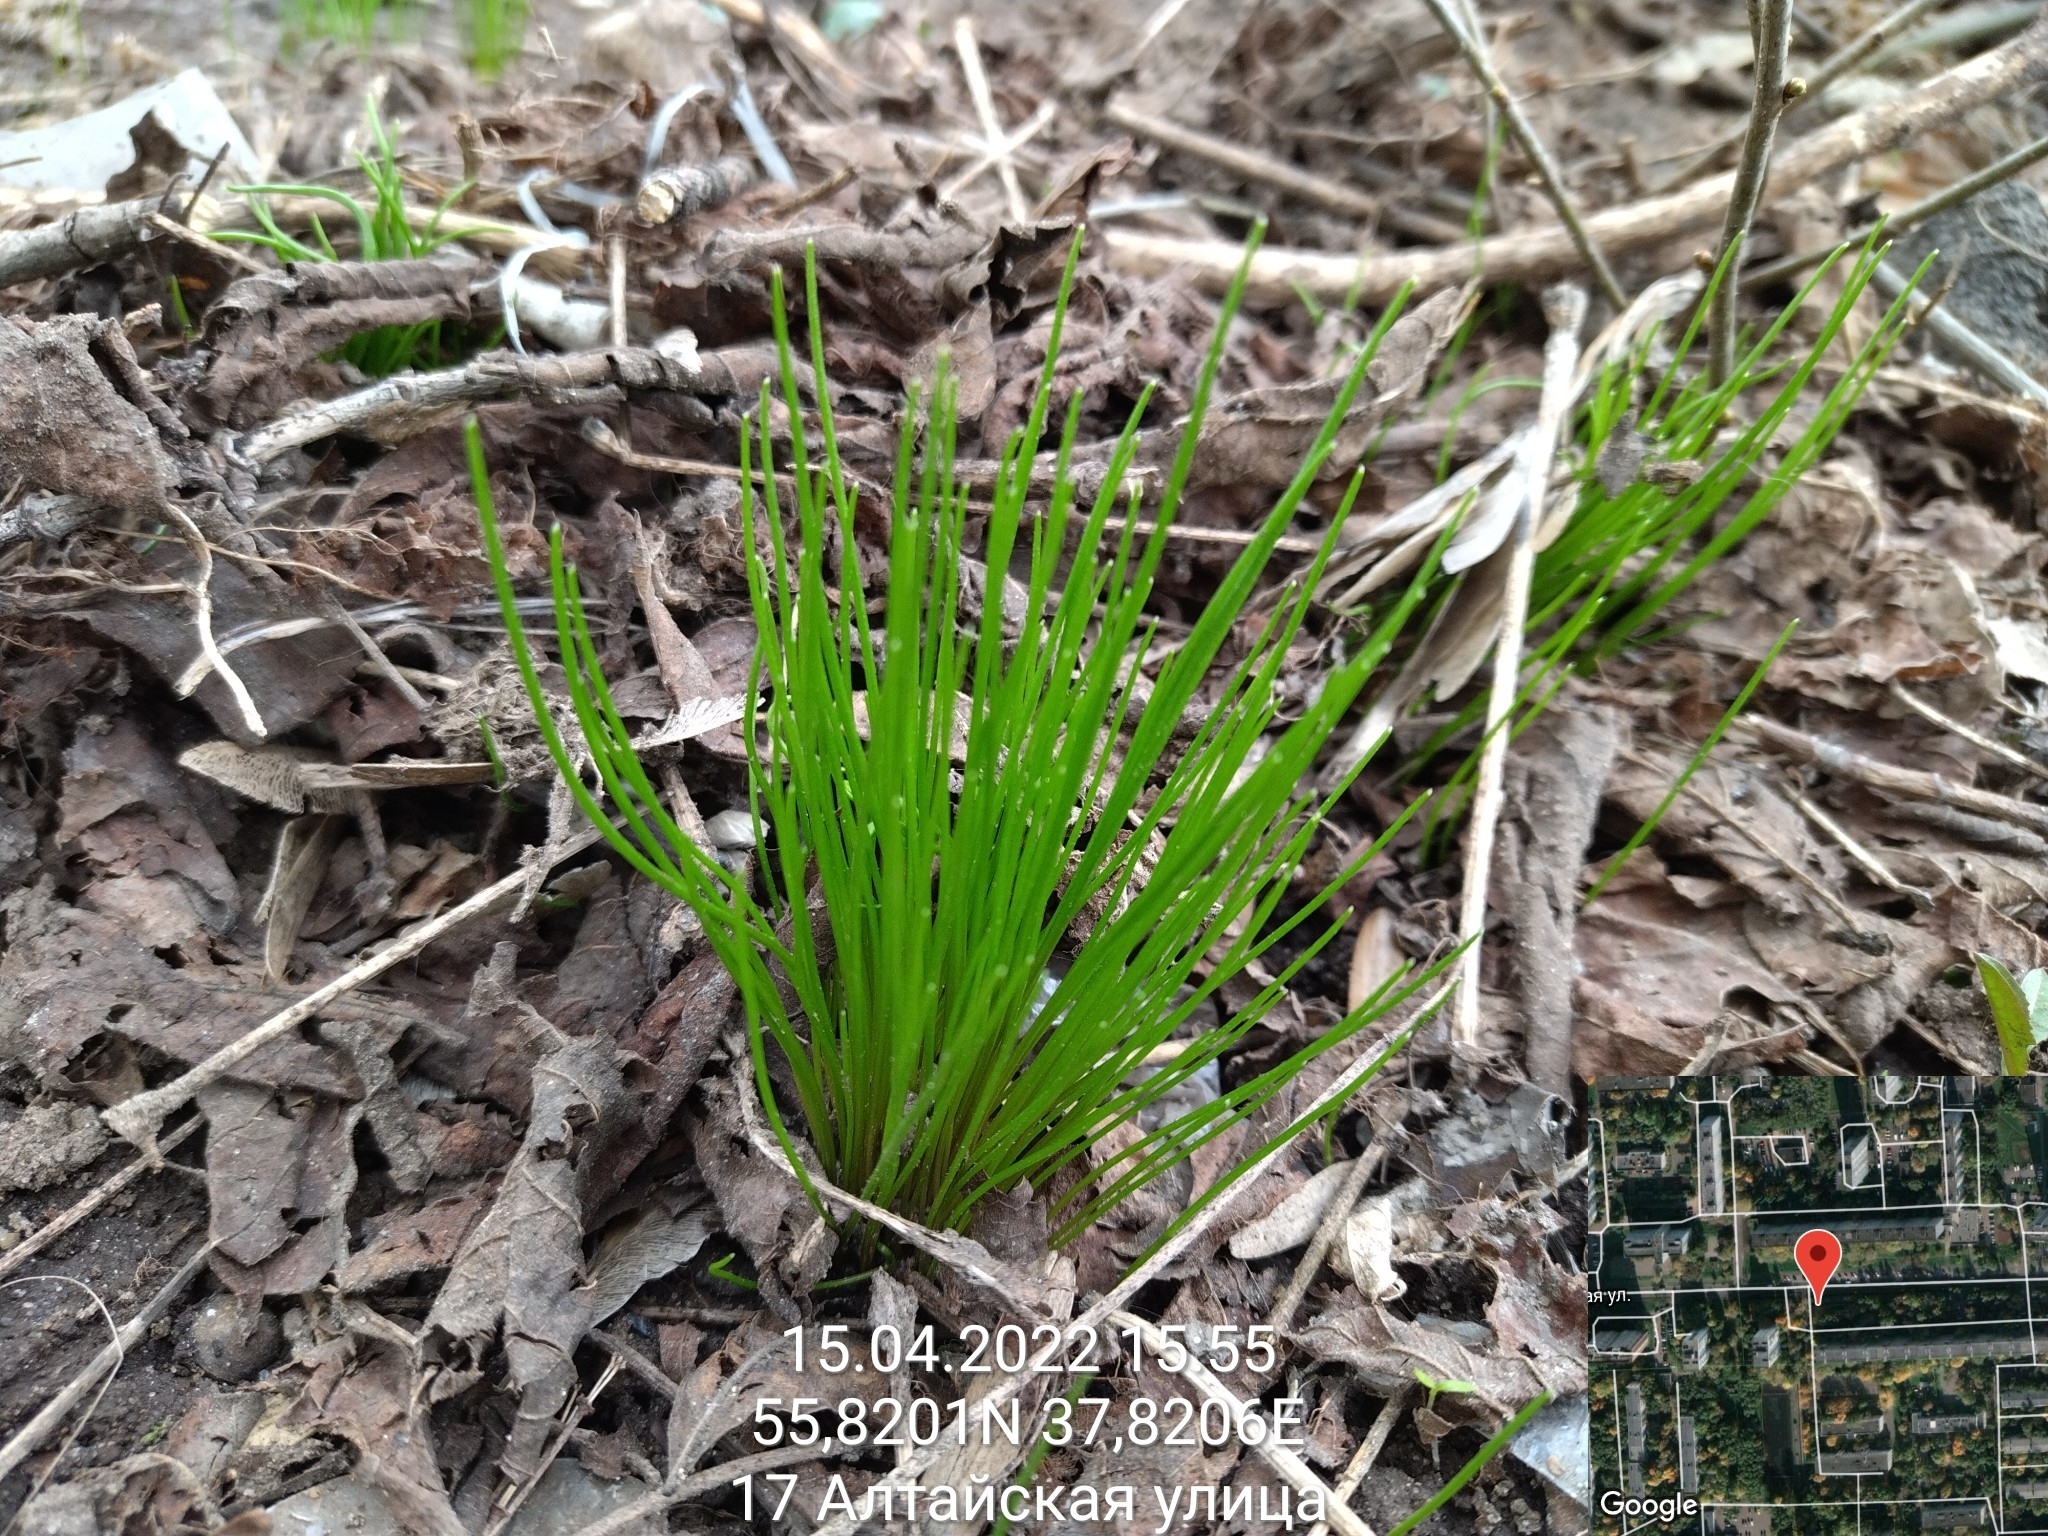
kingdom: Plantae
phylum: Tracheophyta
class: Liliopsida
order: Liliales
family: Liliaceae
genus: Gagea
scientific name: Gagea minima
